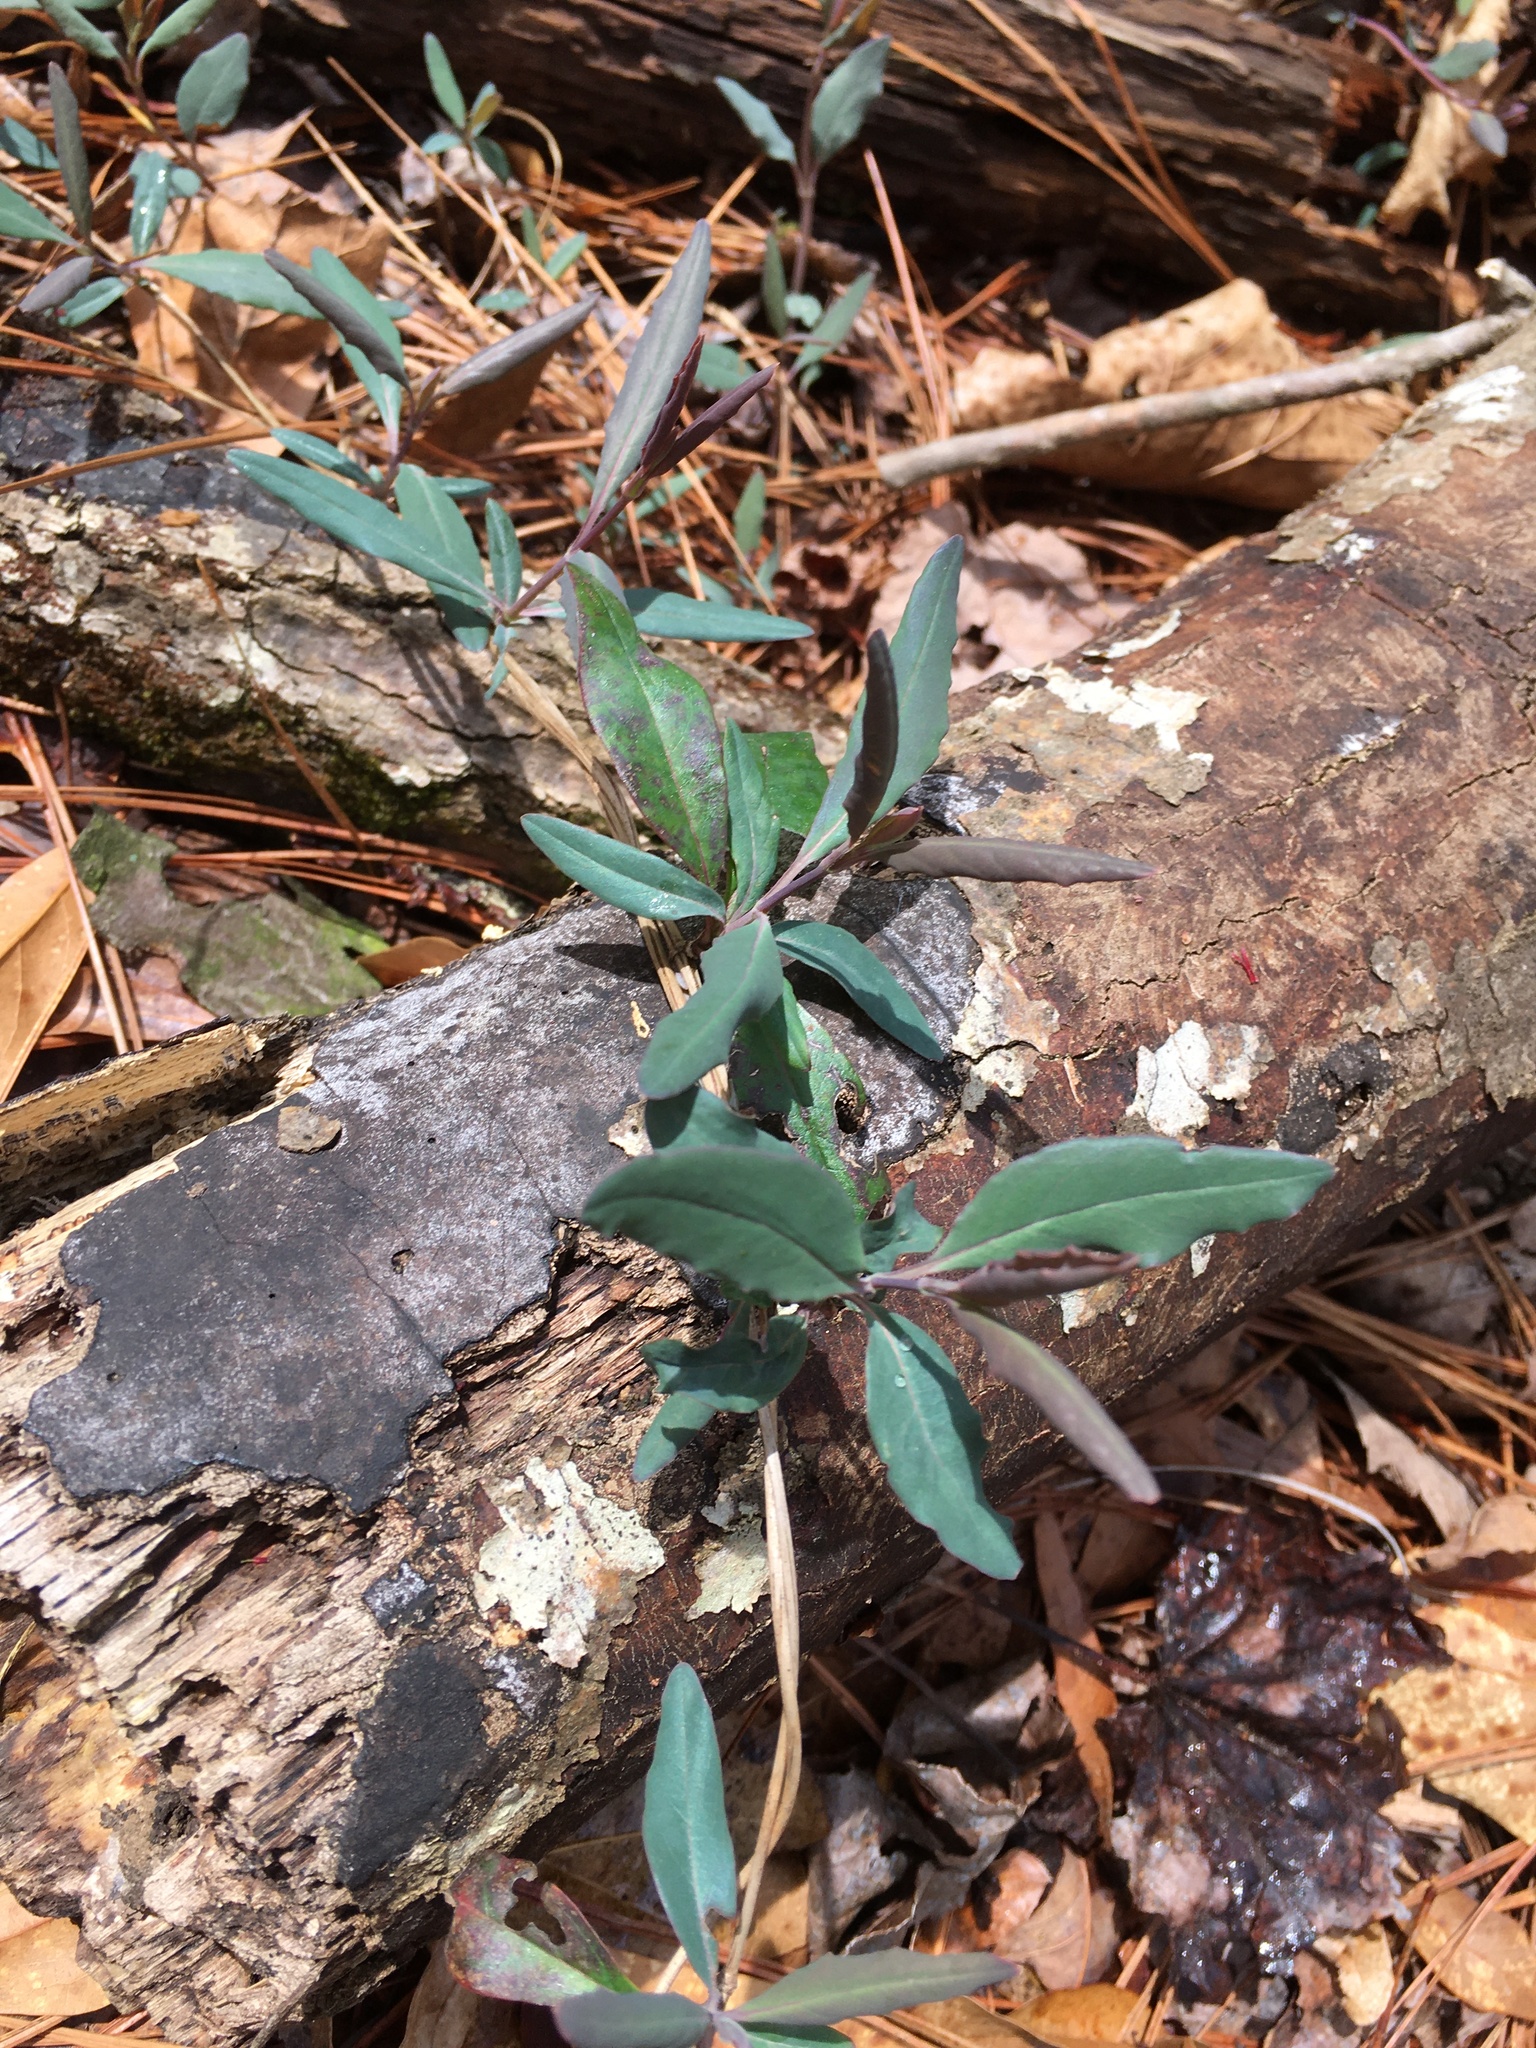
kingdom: Plantae
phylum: Tracheophyta
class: Magnoliopsida
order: Dipsacales
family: Caprifoliaceae
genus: Lonicera
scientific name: Lonicera sempervirens
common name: Coral honeysuckle
